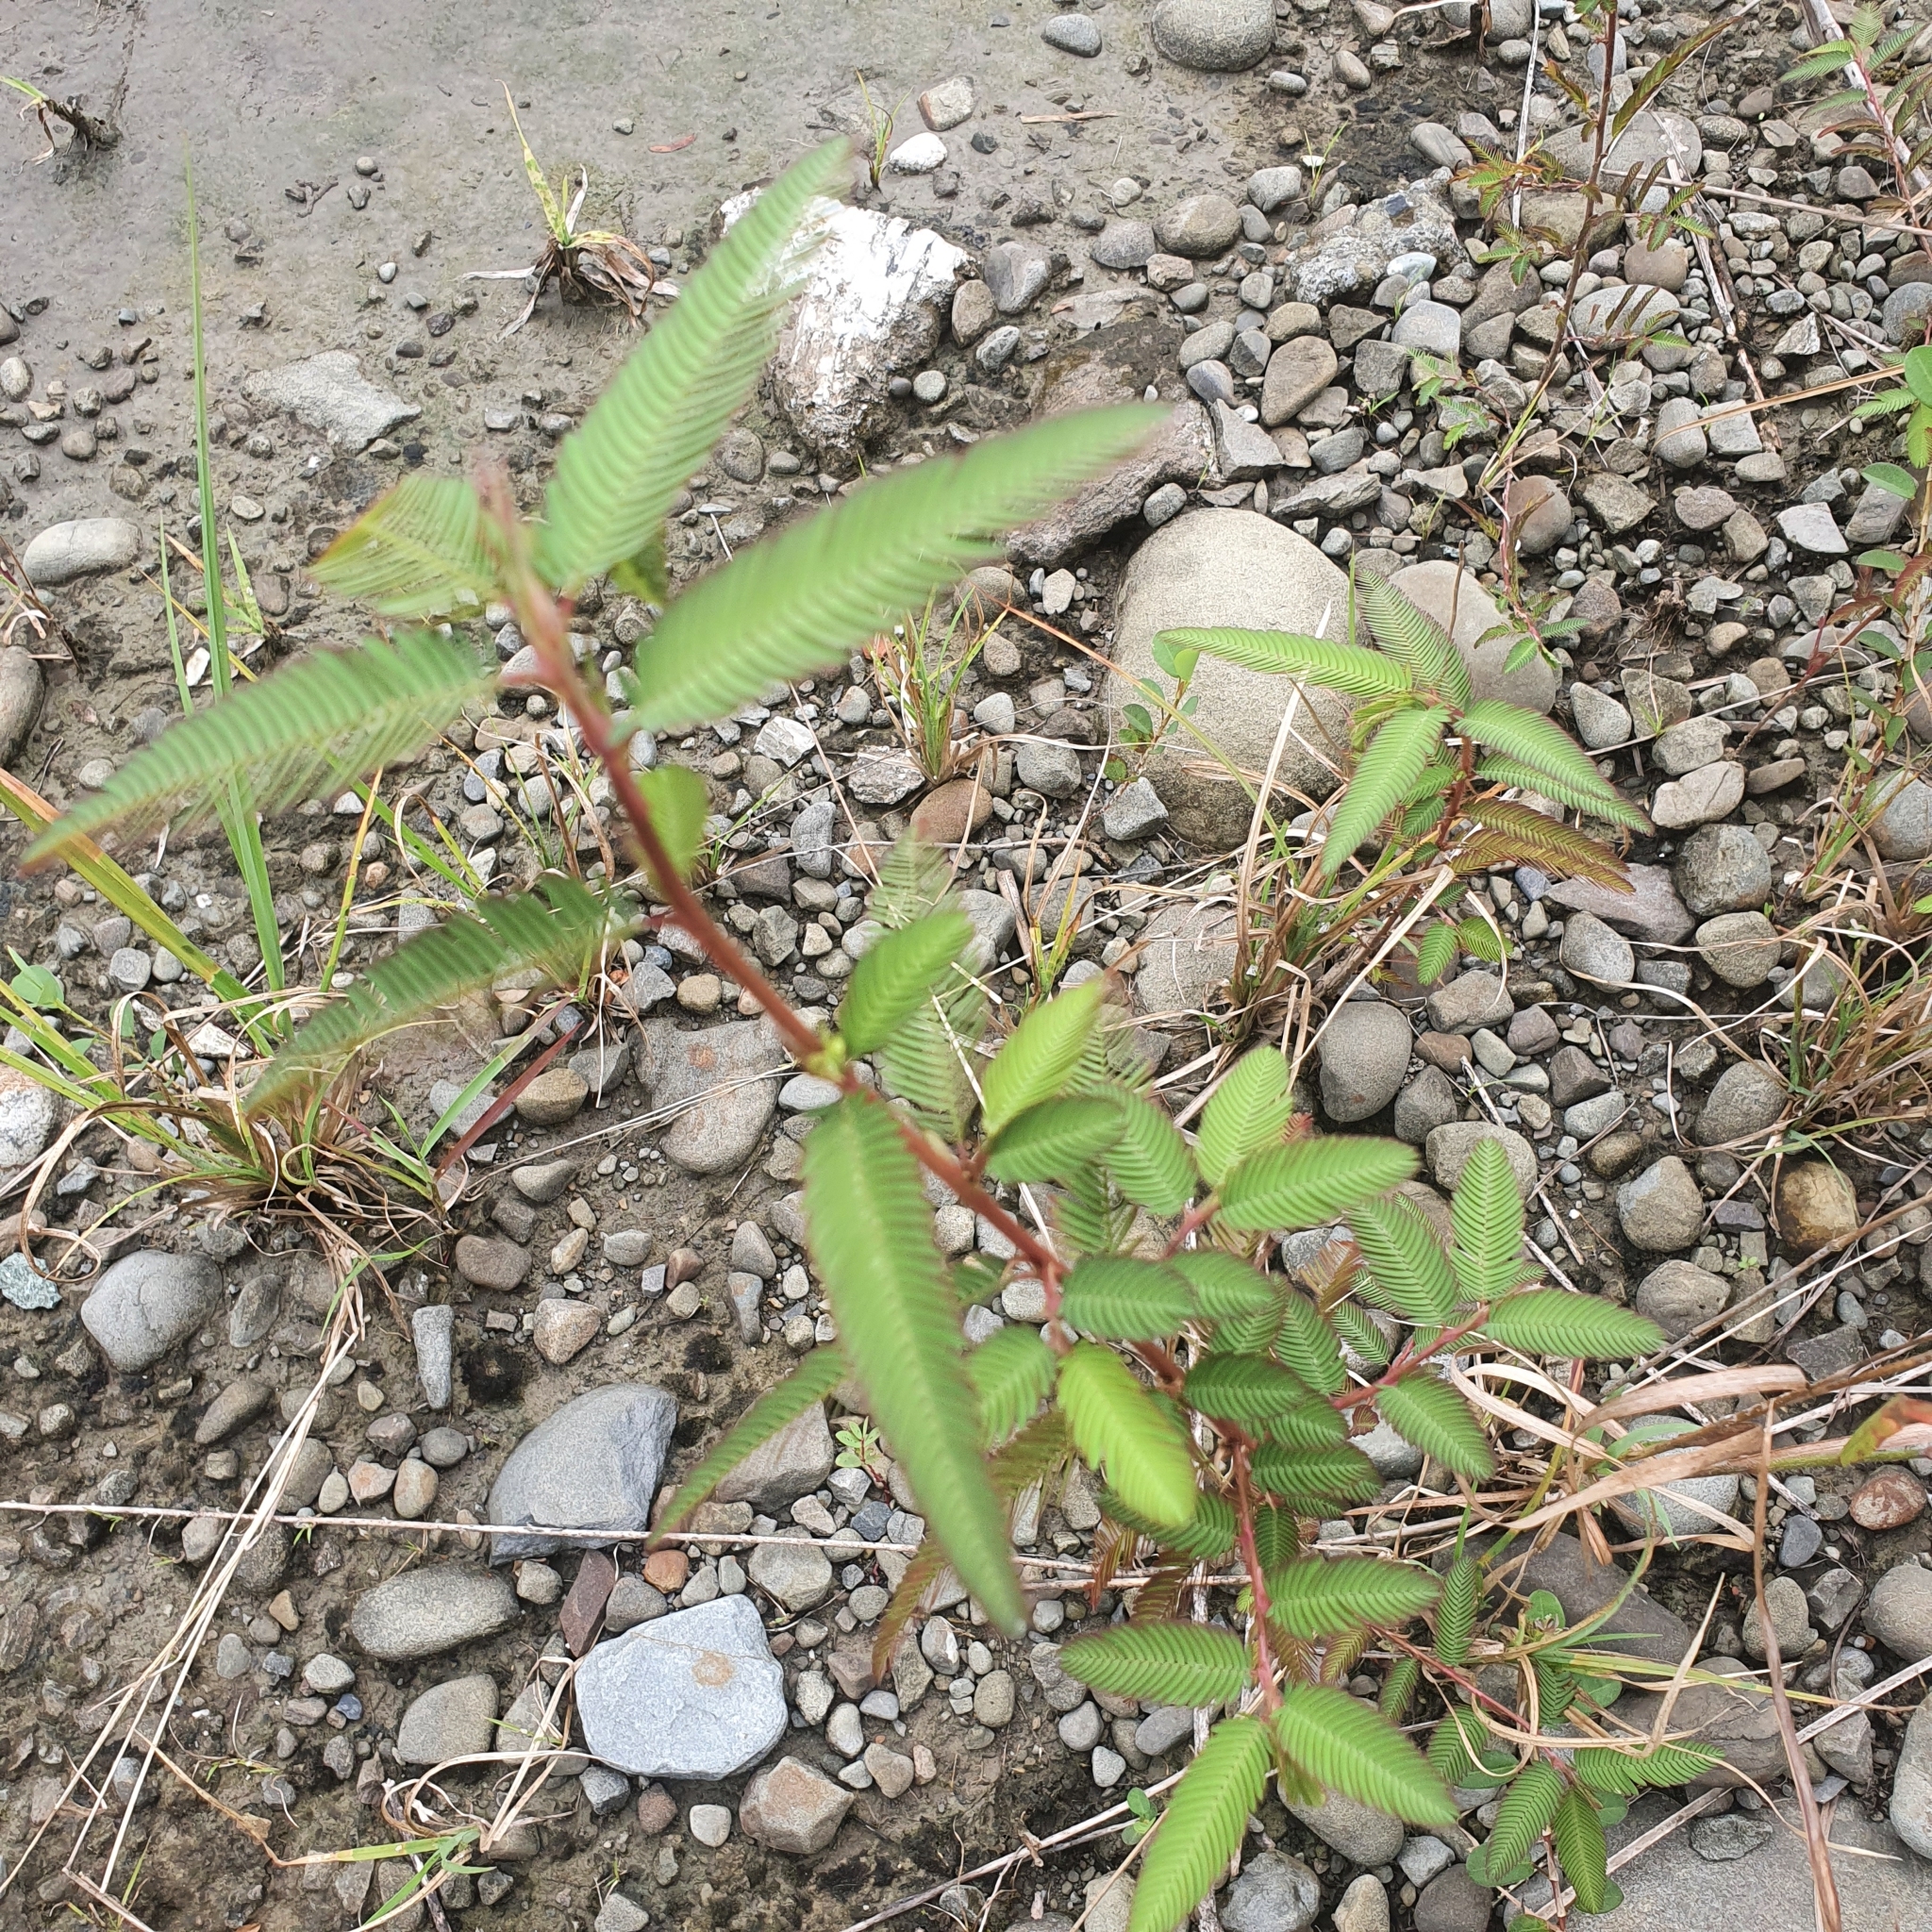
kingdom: Plantae
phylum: Tracheophyta
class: Magnoliopsida
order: Fabales
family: Fabaceae
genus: Aeschynomene
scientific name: Aeschynomene americana
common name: Joint-vetch
